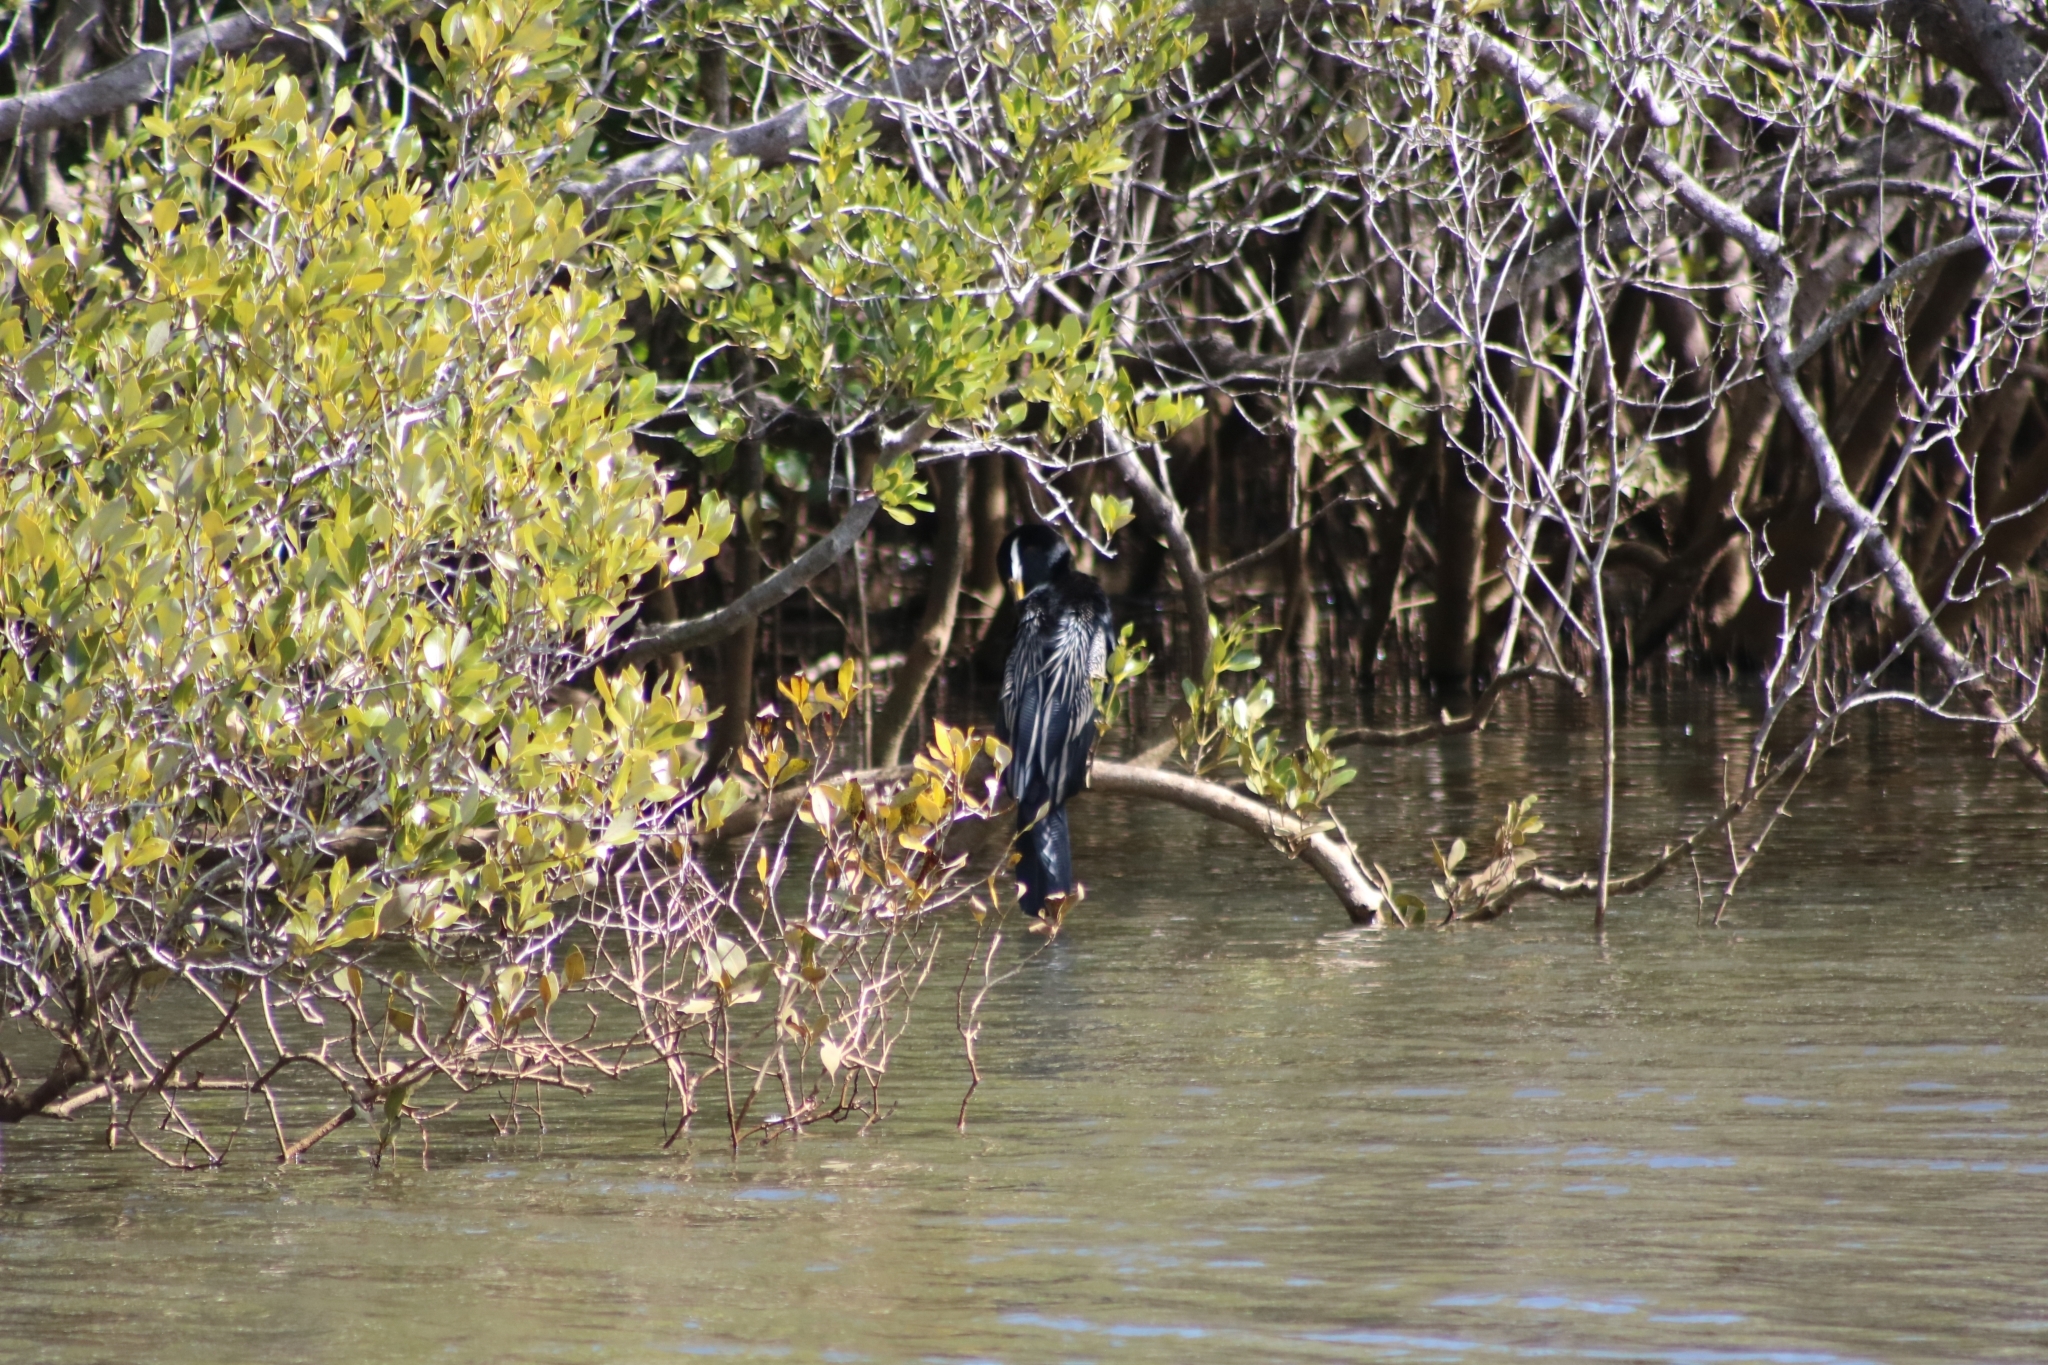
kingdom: Animalia
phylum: Chordata
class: Aves
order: Suliformes
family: Anhingidae
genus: Anhinga
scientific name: Anhinga novaehollandiae
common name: Australasian darter
